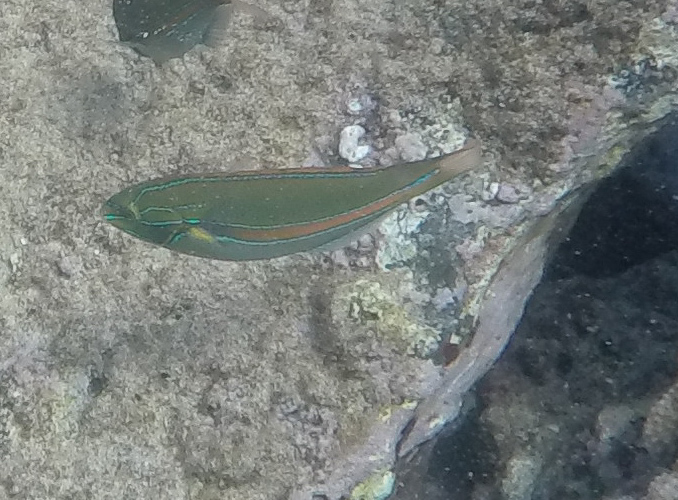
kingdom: Animalia
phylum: Chordata
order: Perciformes
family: Labridae
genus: Stethojulis
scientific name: Stethojulis balteata
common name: Belted wrasse
